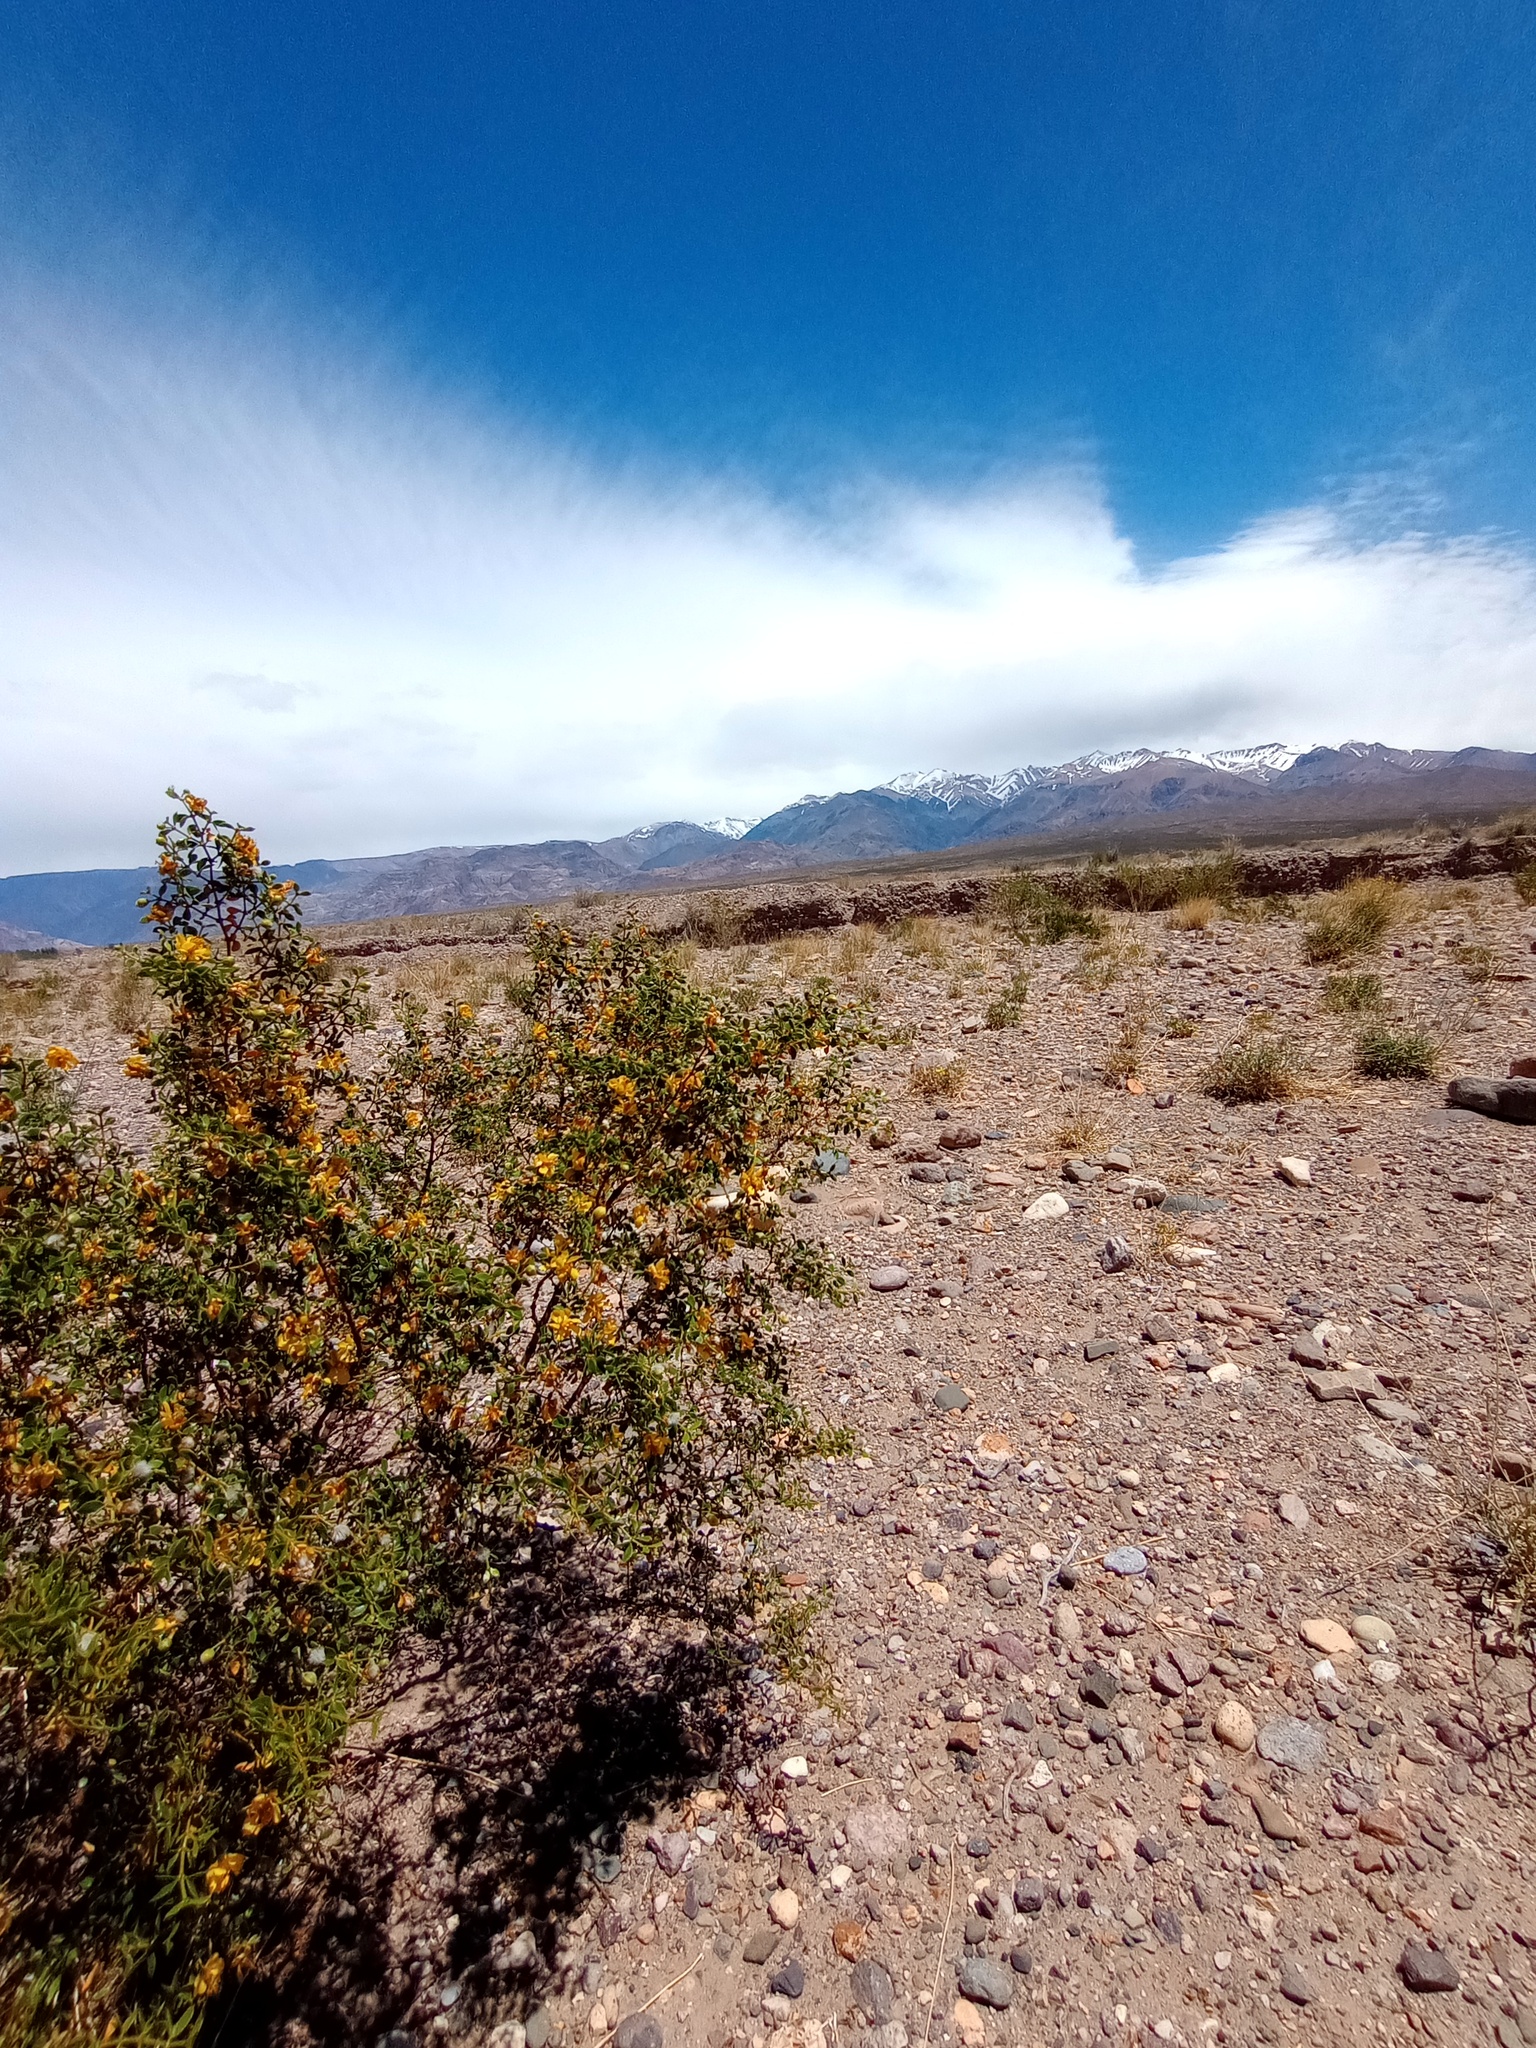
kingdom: Plantae
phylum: Tracheophyta
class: Magnoliopsida
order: Zygophyllales
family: Zygophyllaceae
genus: Larrea
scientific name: Larrea divaricata
